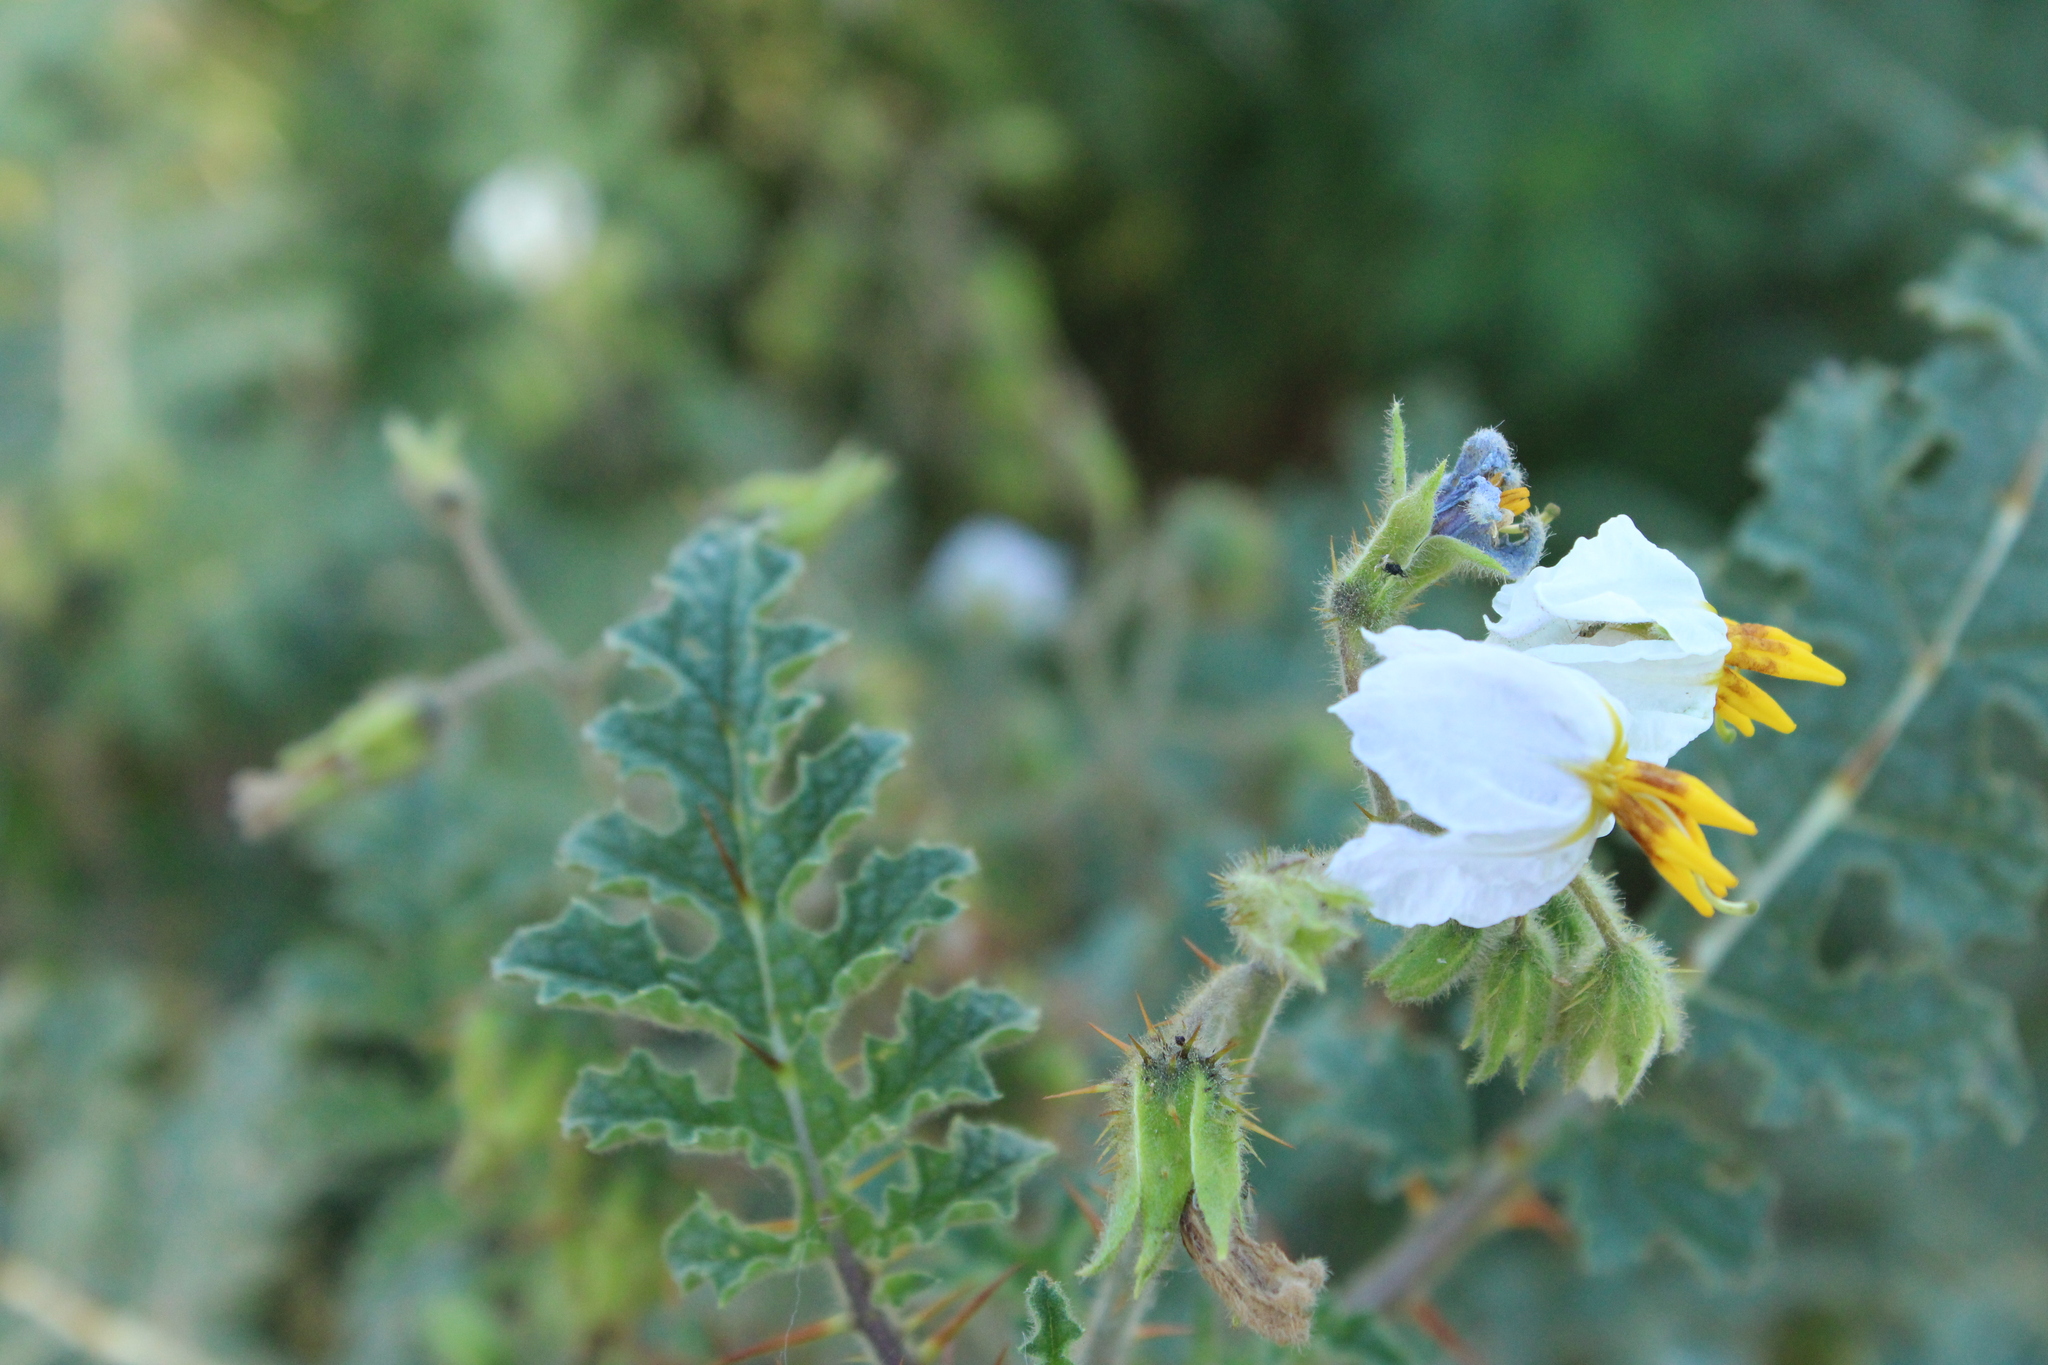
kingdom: Plantae
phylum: Tracheophyta
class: Magnoliopsida
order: Solanales
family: Solanaceae
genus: Solanum
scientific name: Solanum sisymbriifolium
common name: Red buffalo-bur
